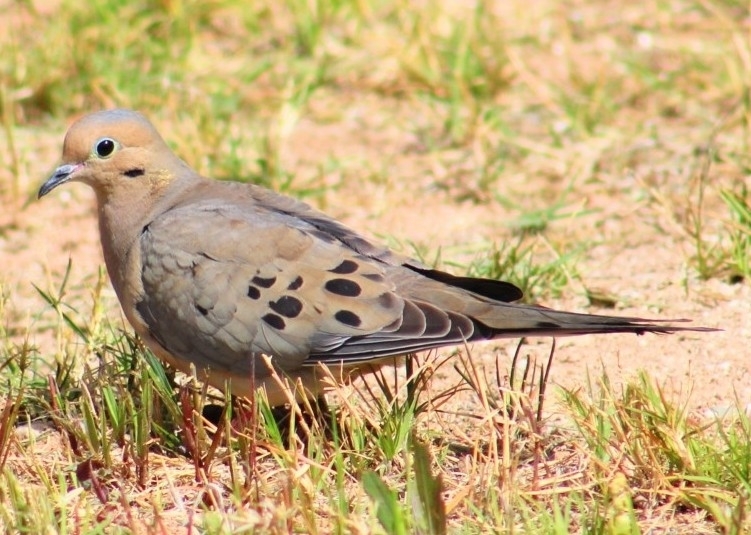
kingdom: Animalia
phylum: Chordata
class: Aves
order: Columbiformes
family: Columbidae
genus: Zenaida
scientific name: Zenaida macroura
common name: Mourning dove
